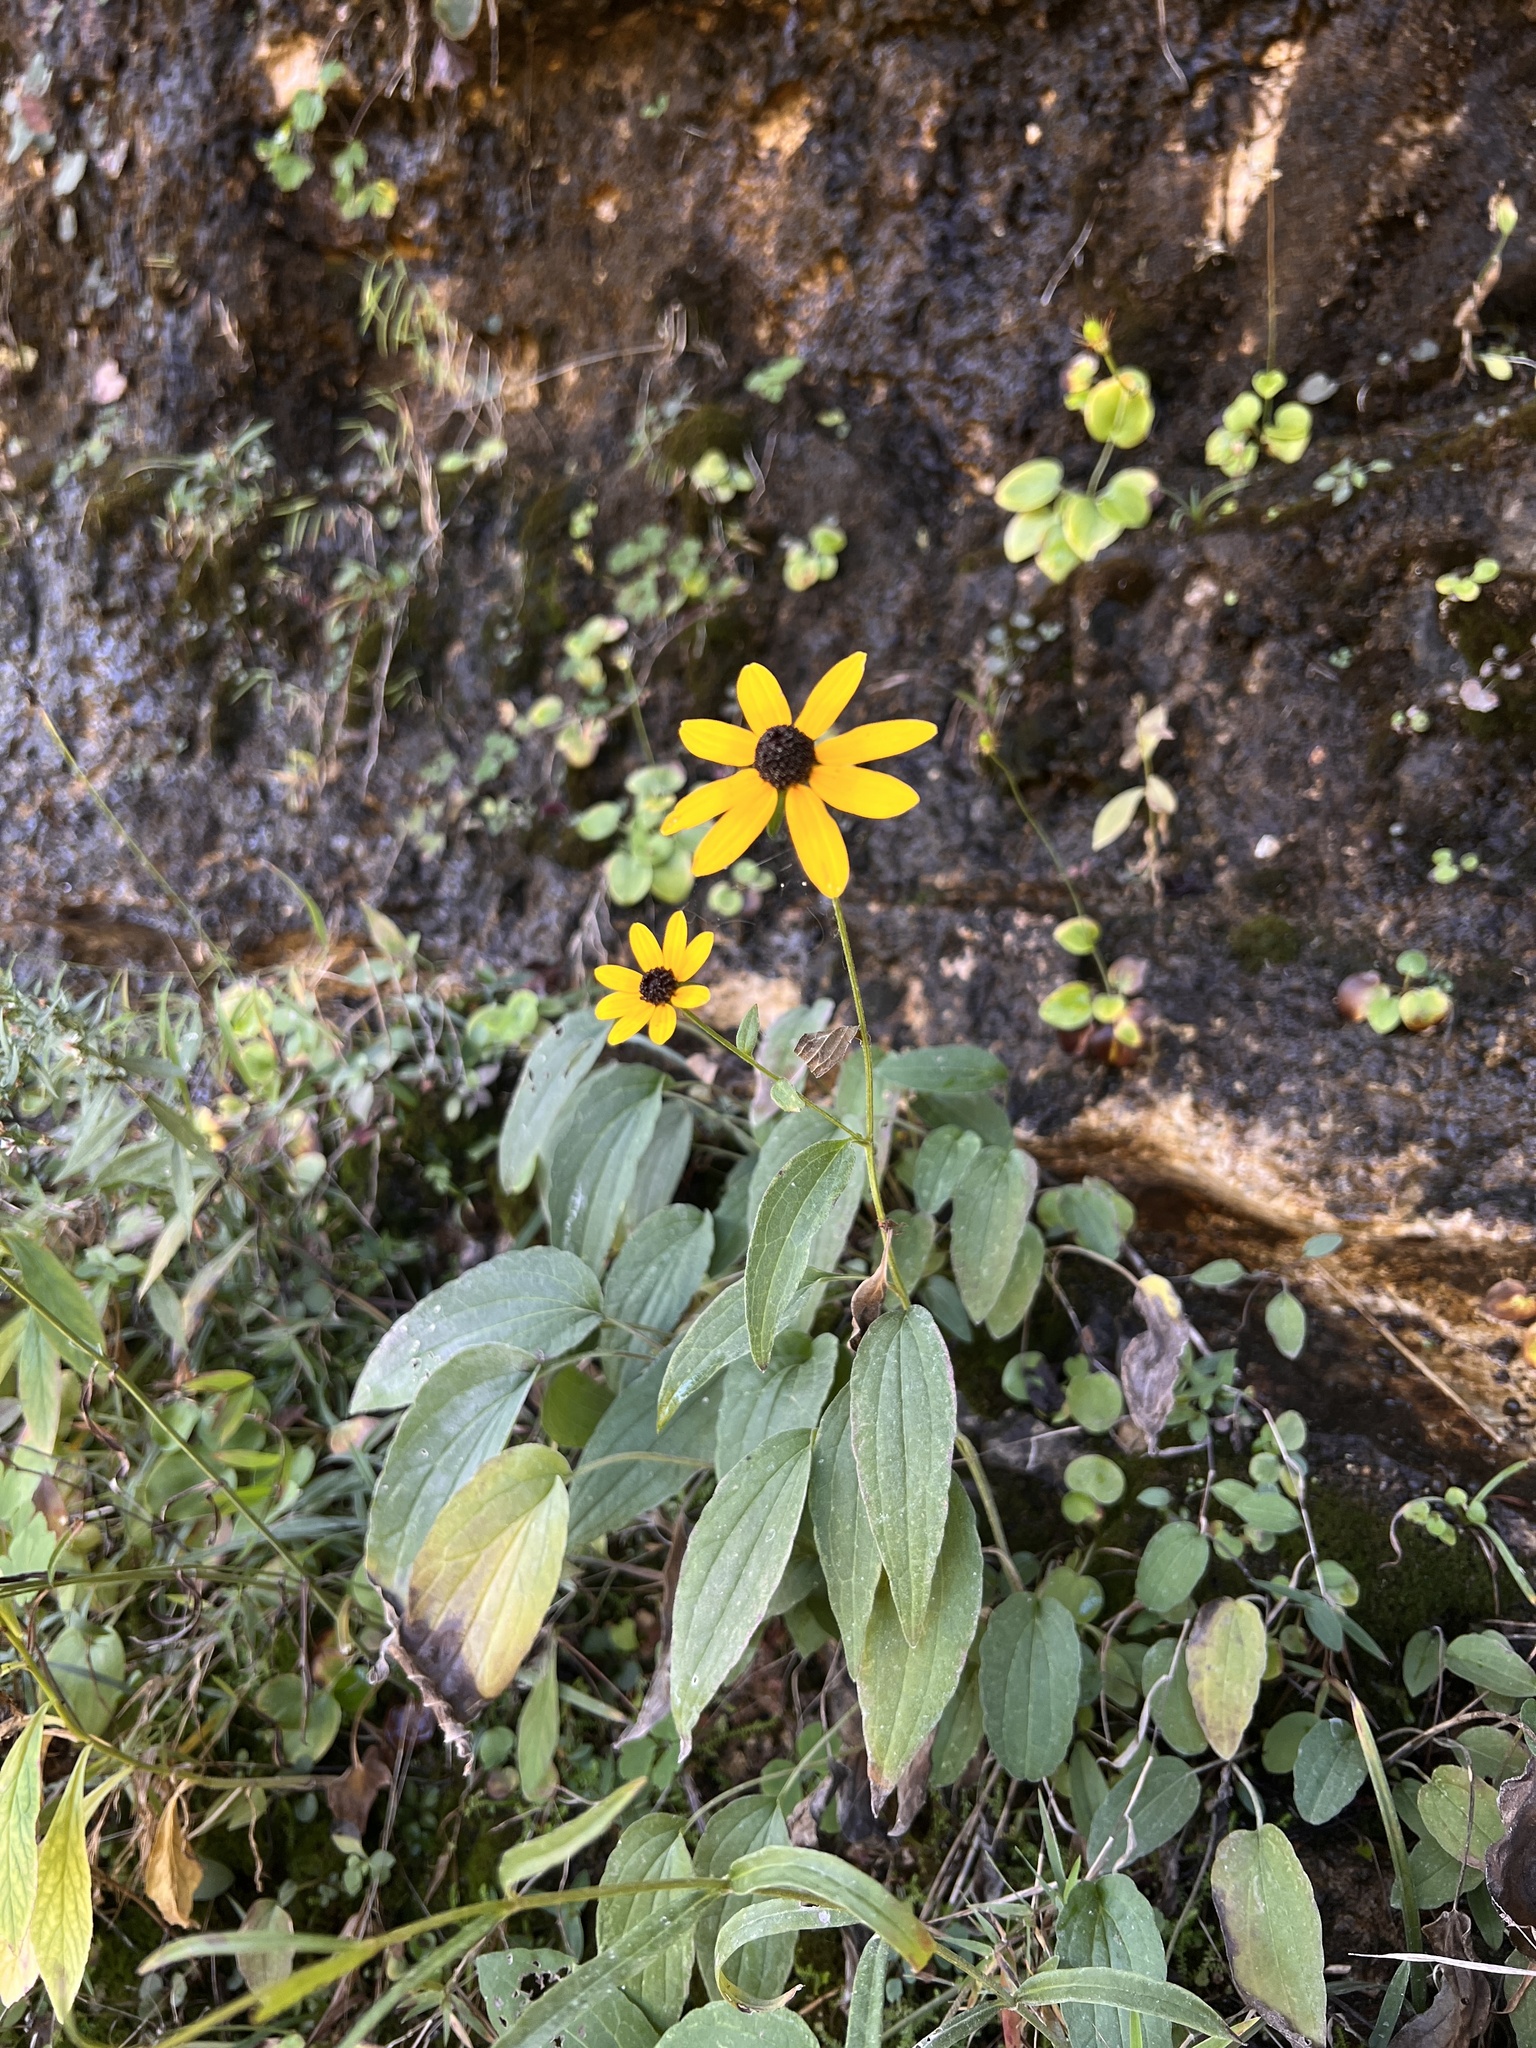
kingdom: Plantae
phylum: Tracheophyta
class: Magnoliopsida
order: Asterales
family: Asteraceae
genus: Rudbeckia
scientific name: Rudbeckia palustris
